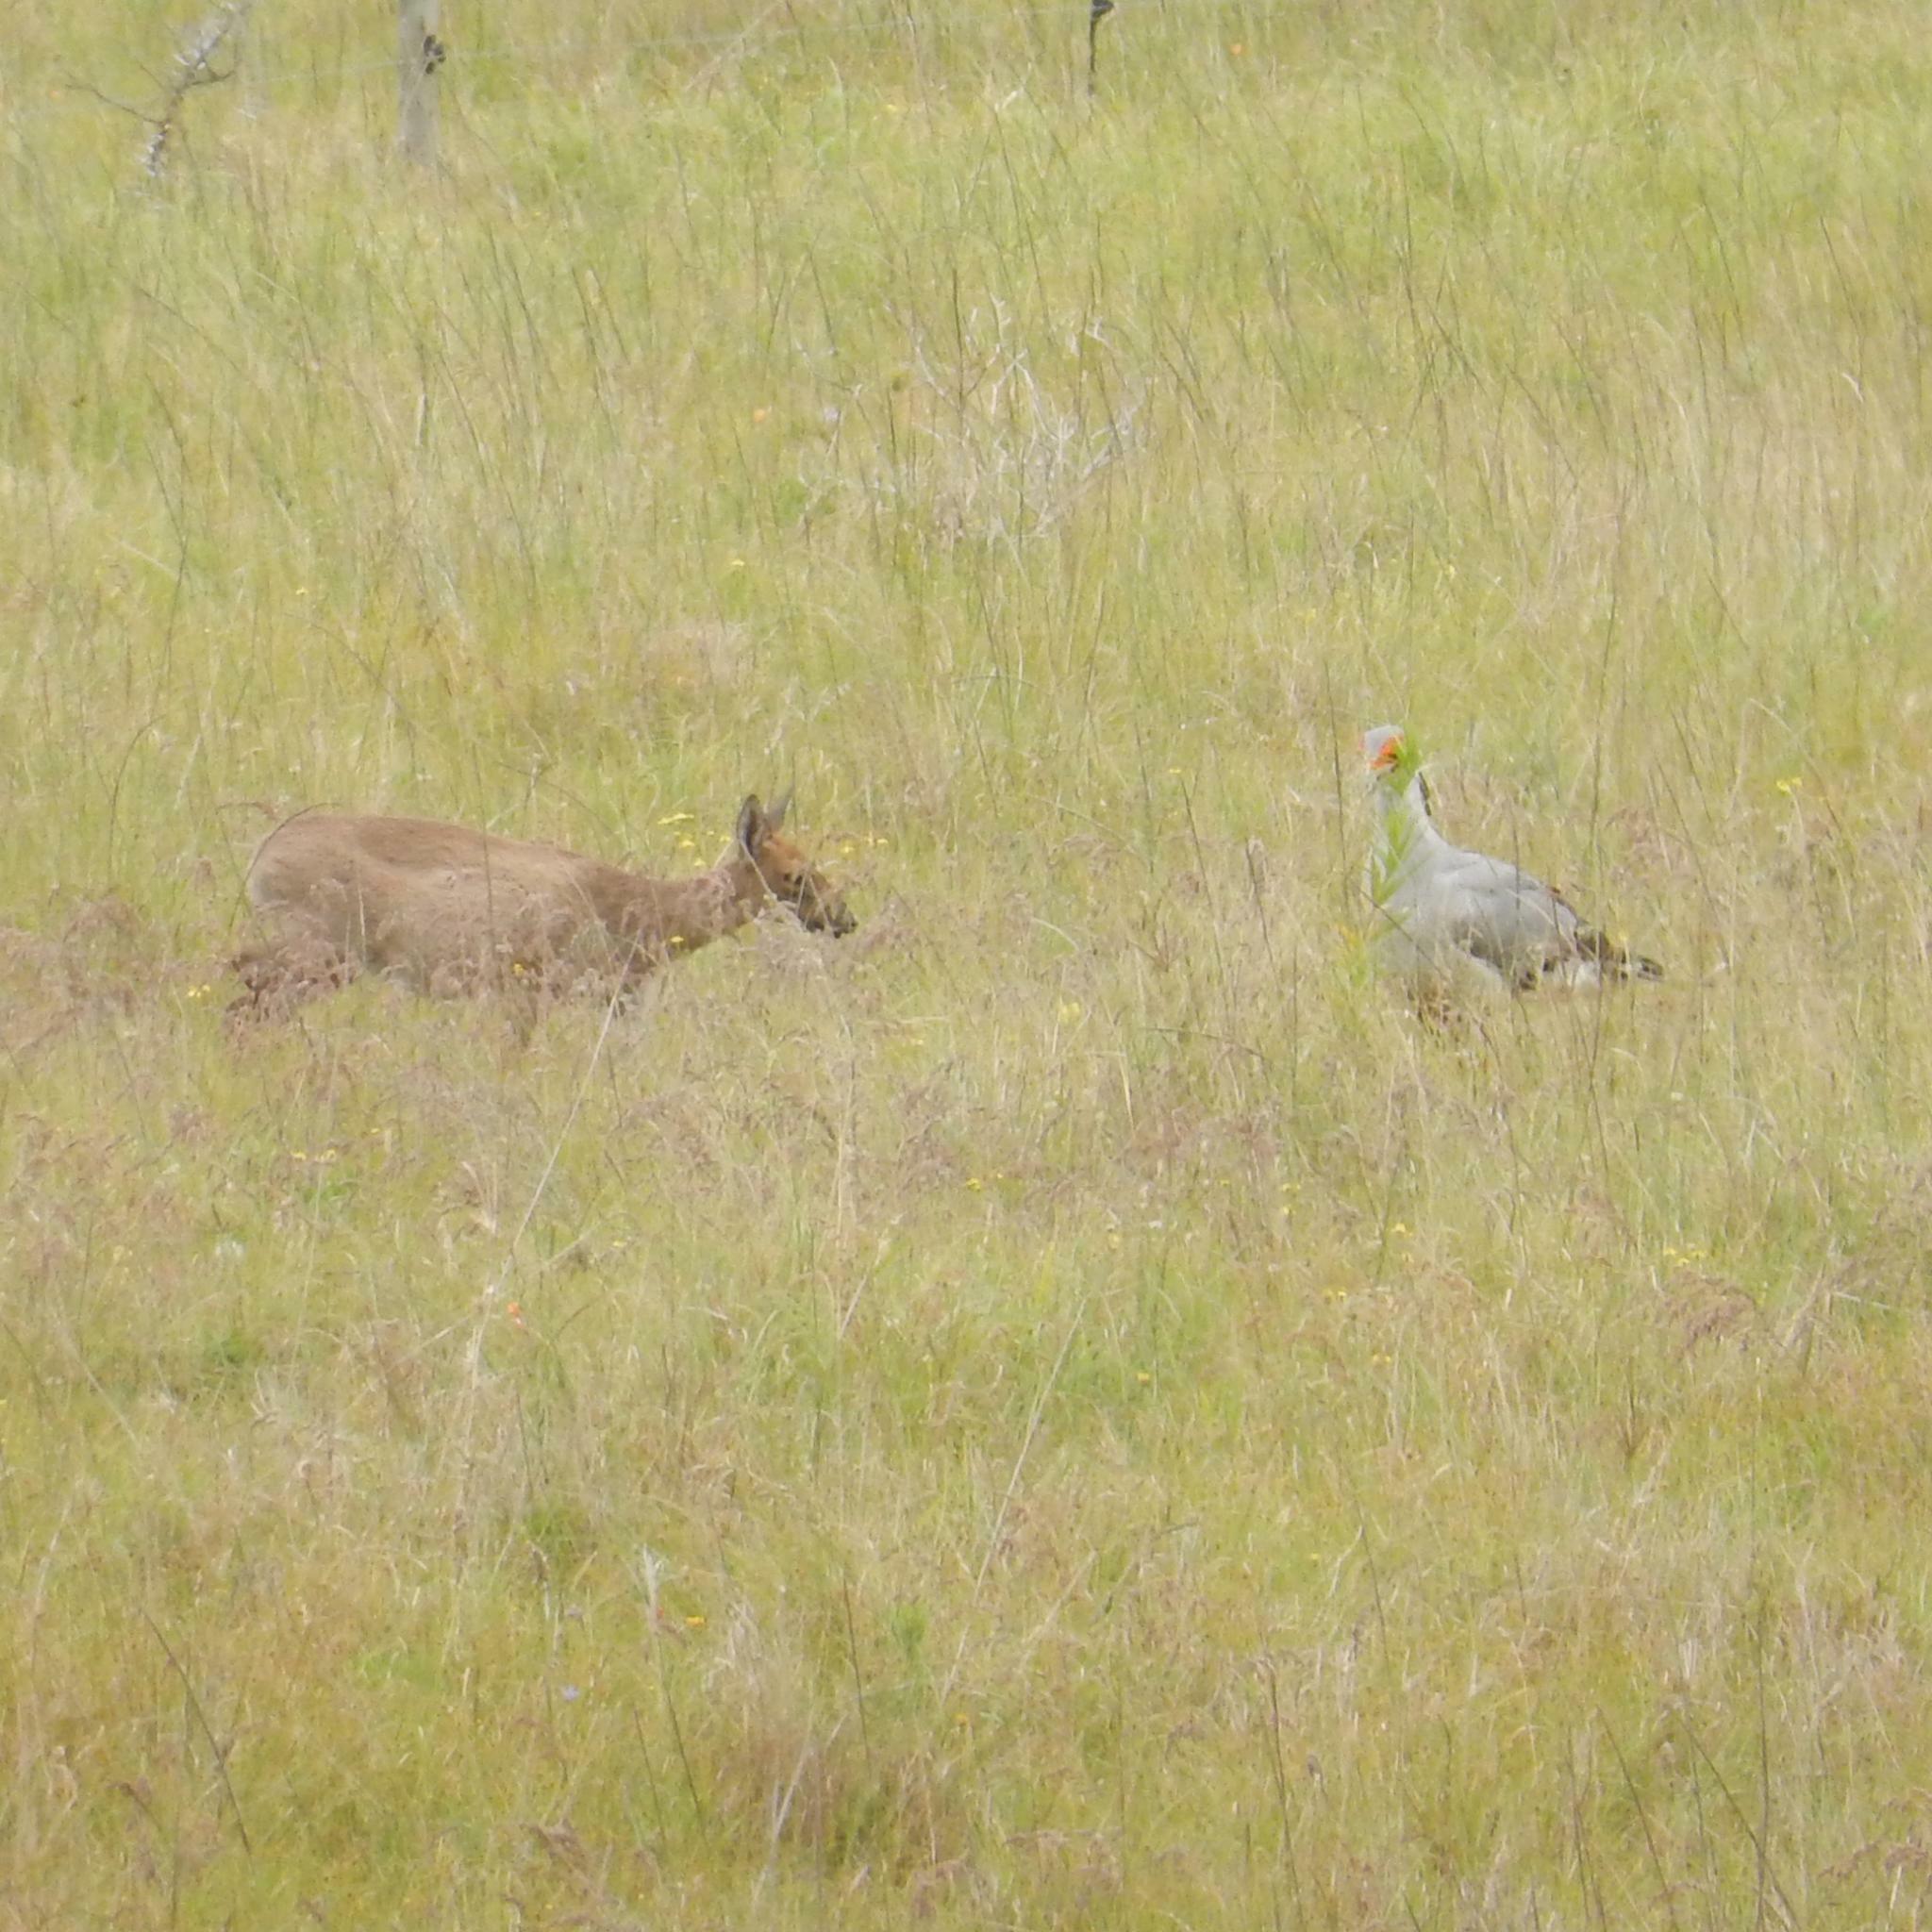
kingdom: Animalia
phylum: Chordata
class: Aves
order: Accipitriformes
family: Sagittariidae
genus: Sagittarius
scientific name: Sagittarius serpentarius
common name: Secretarybird
